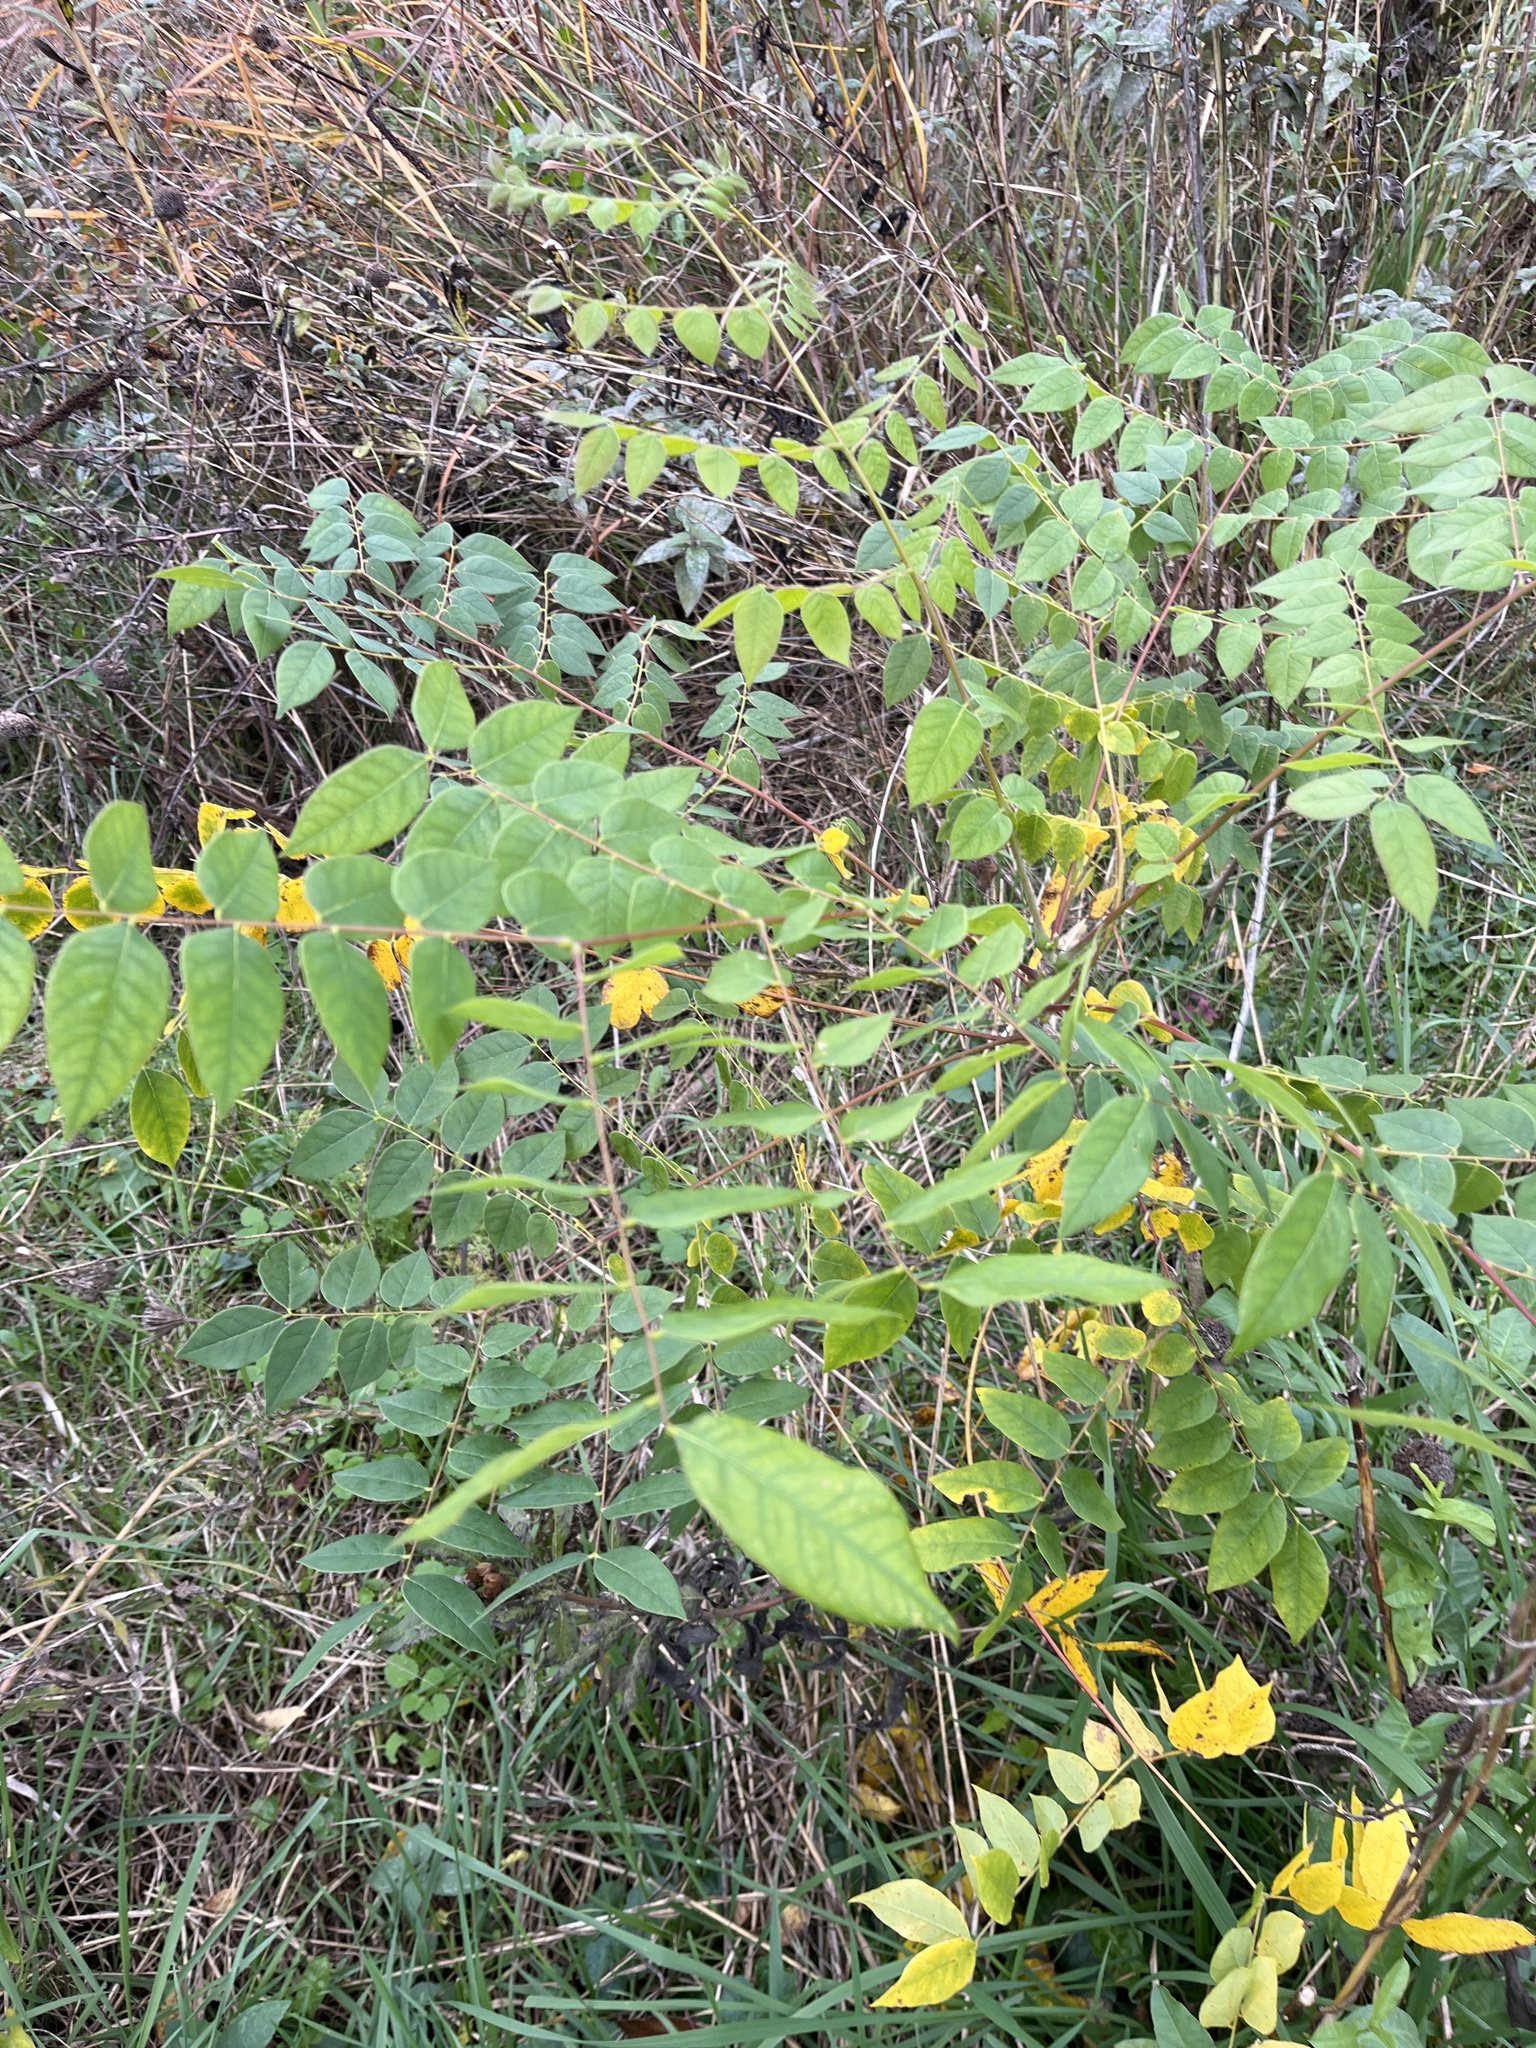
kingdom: Plantae
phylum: Tracheophyta
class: Magnoliopsida
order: Fabales
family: Fabaceae
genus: Gymnocladus
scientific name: Gymnocladus dioicus
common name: Kentucky coffee-tree
